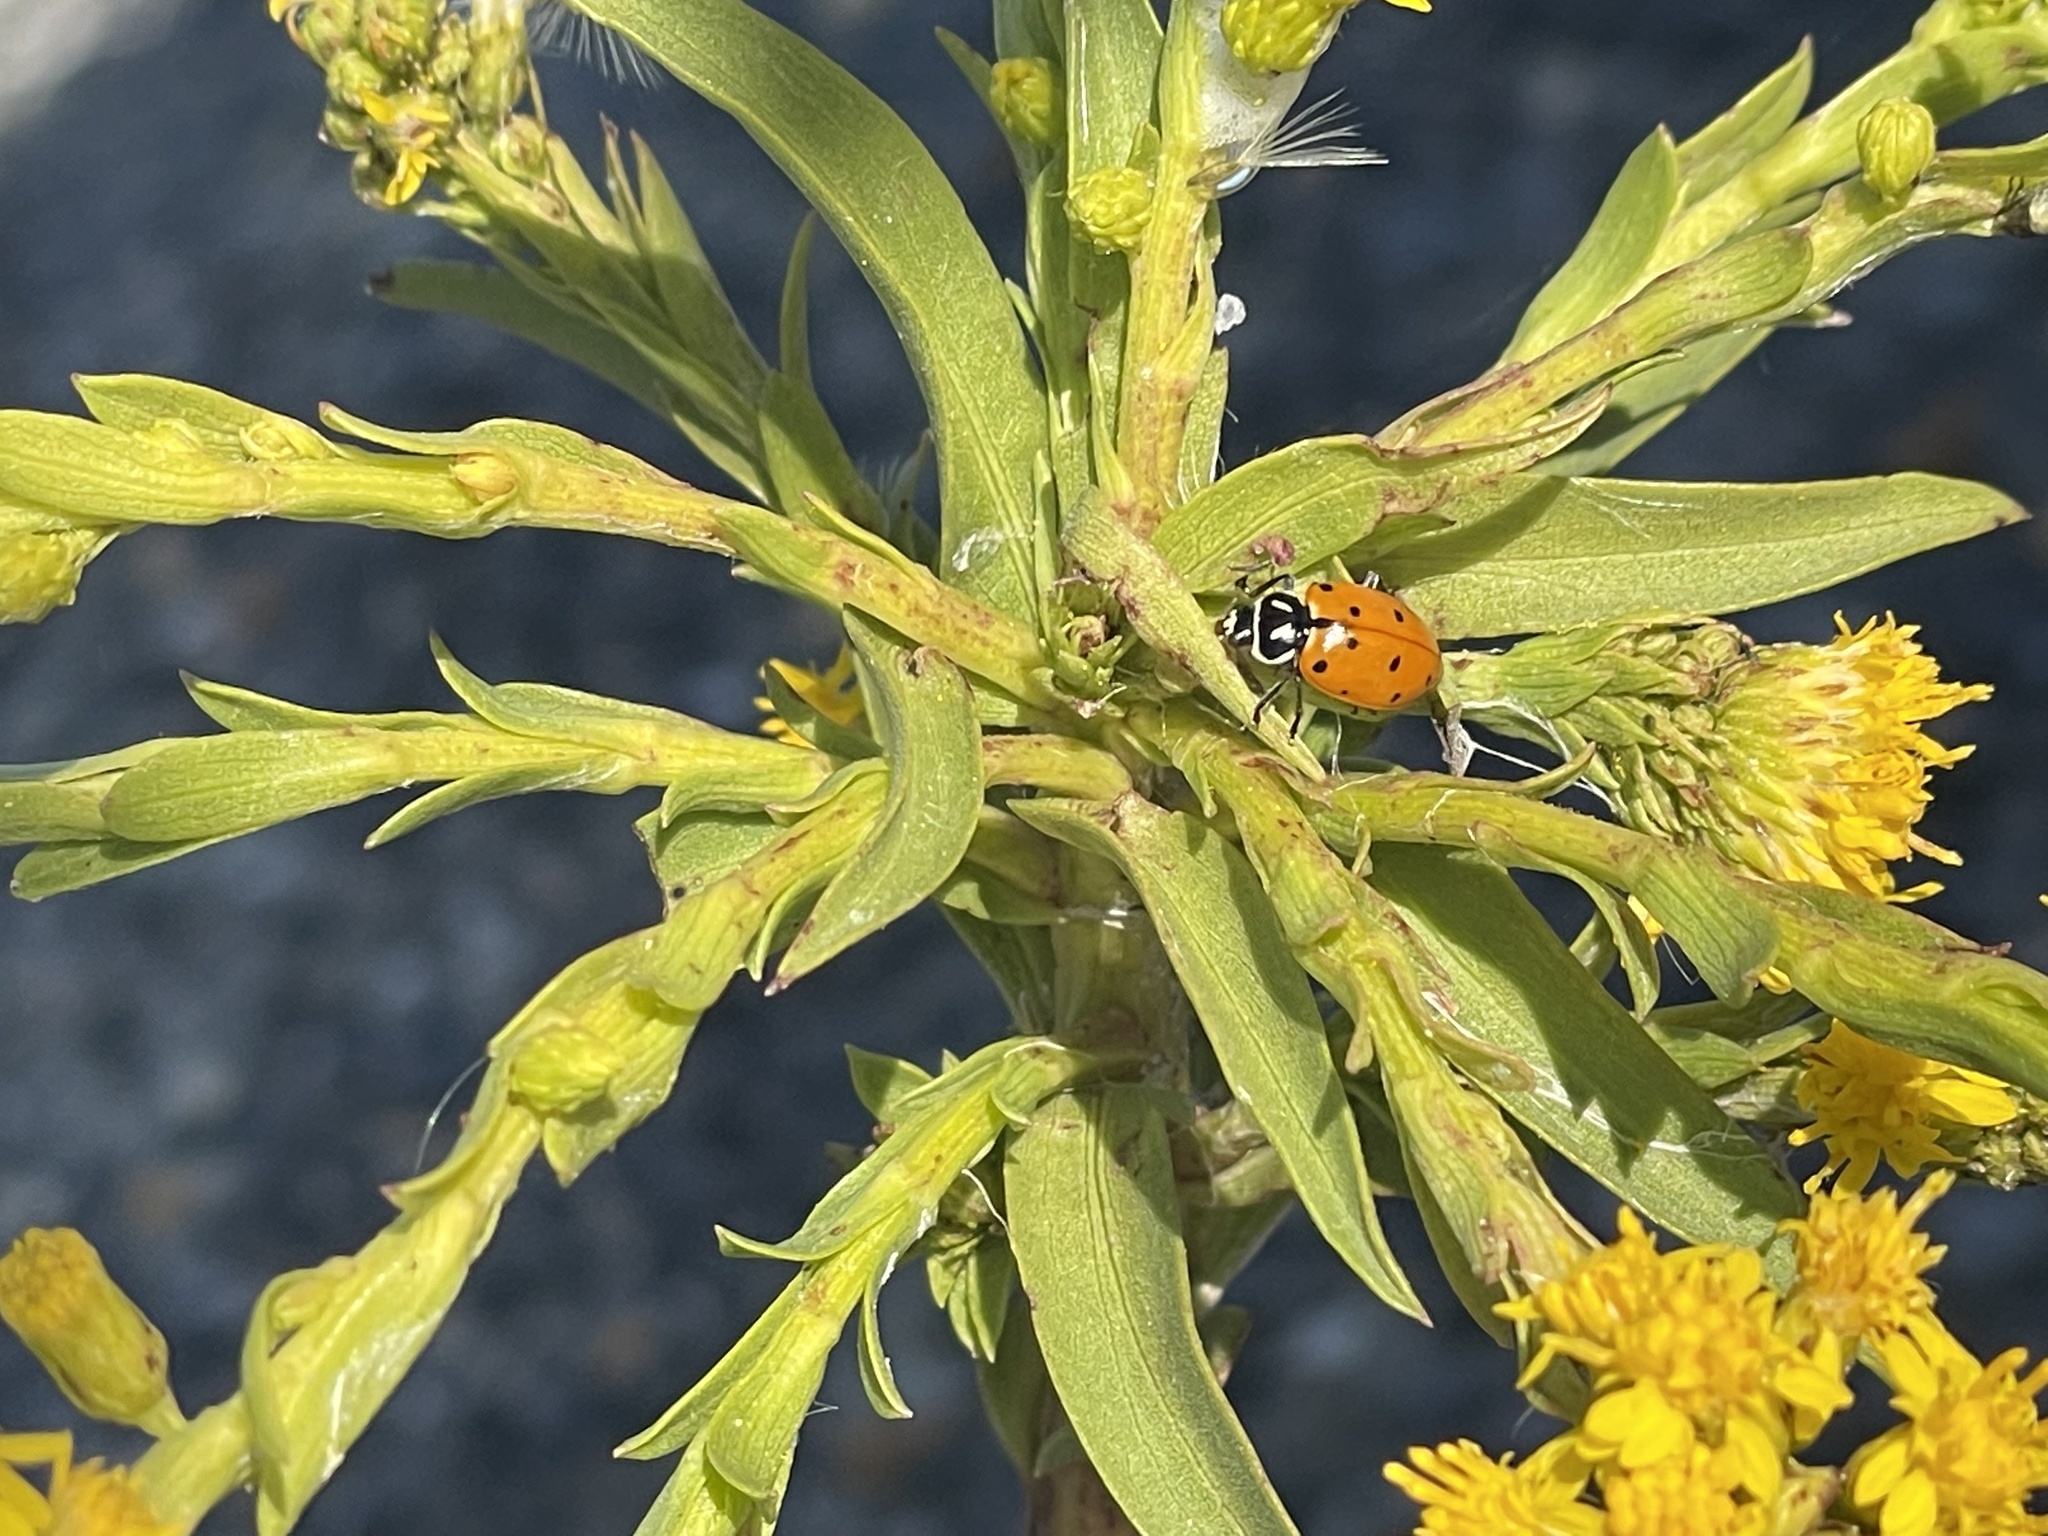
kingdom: Animalia
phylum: Arthropoda
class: Insecta
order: Coleoptera
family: Coccinellidae
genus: Hippodamia
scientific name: Hippodamia convergens
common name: Convergent lady beetle
